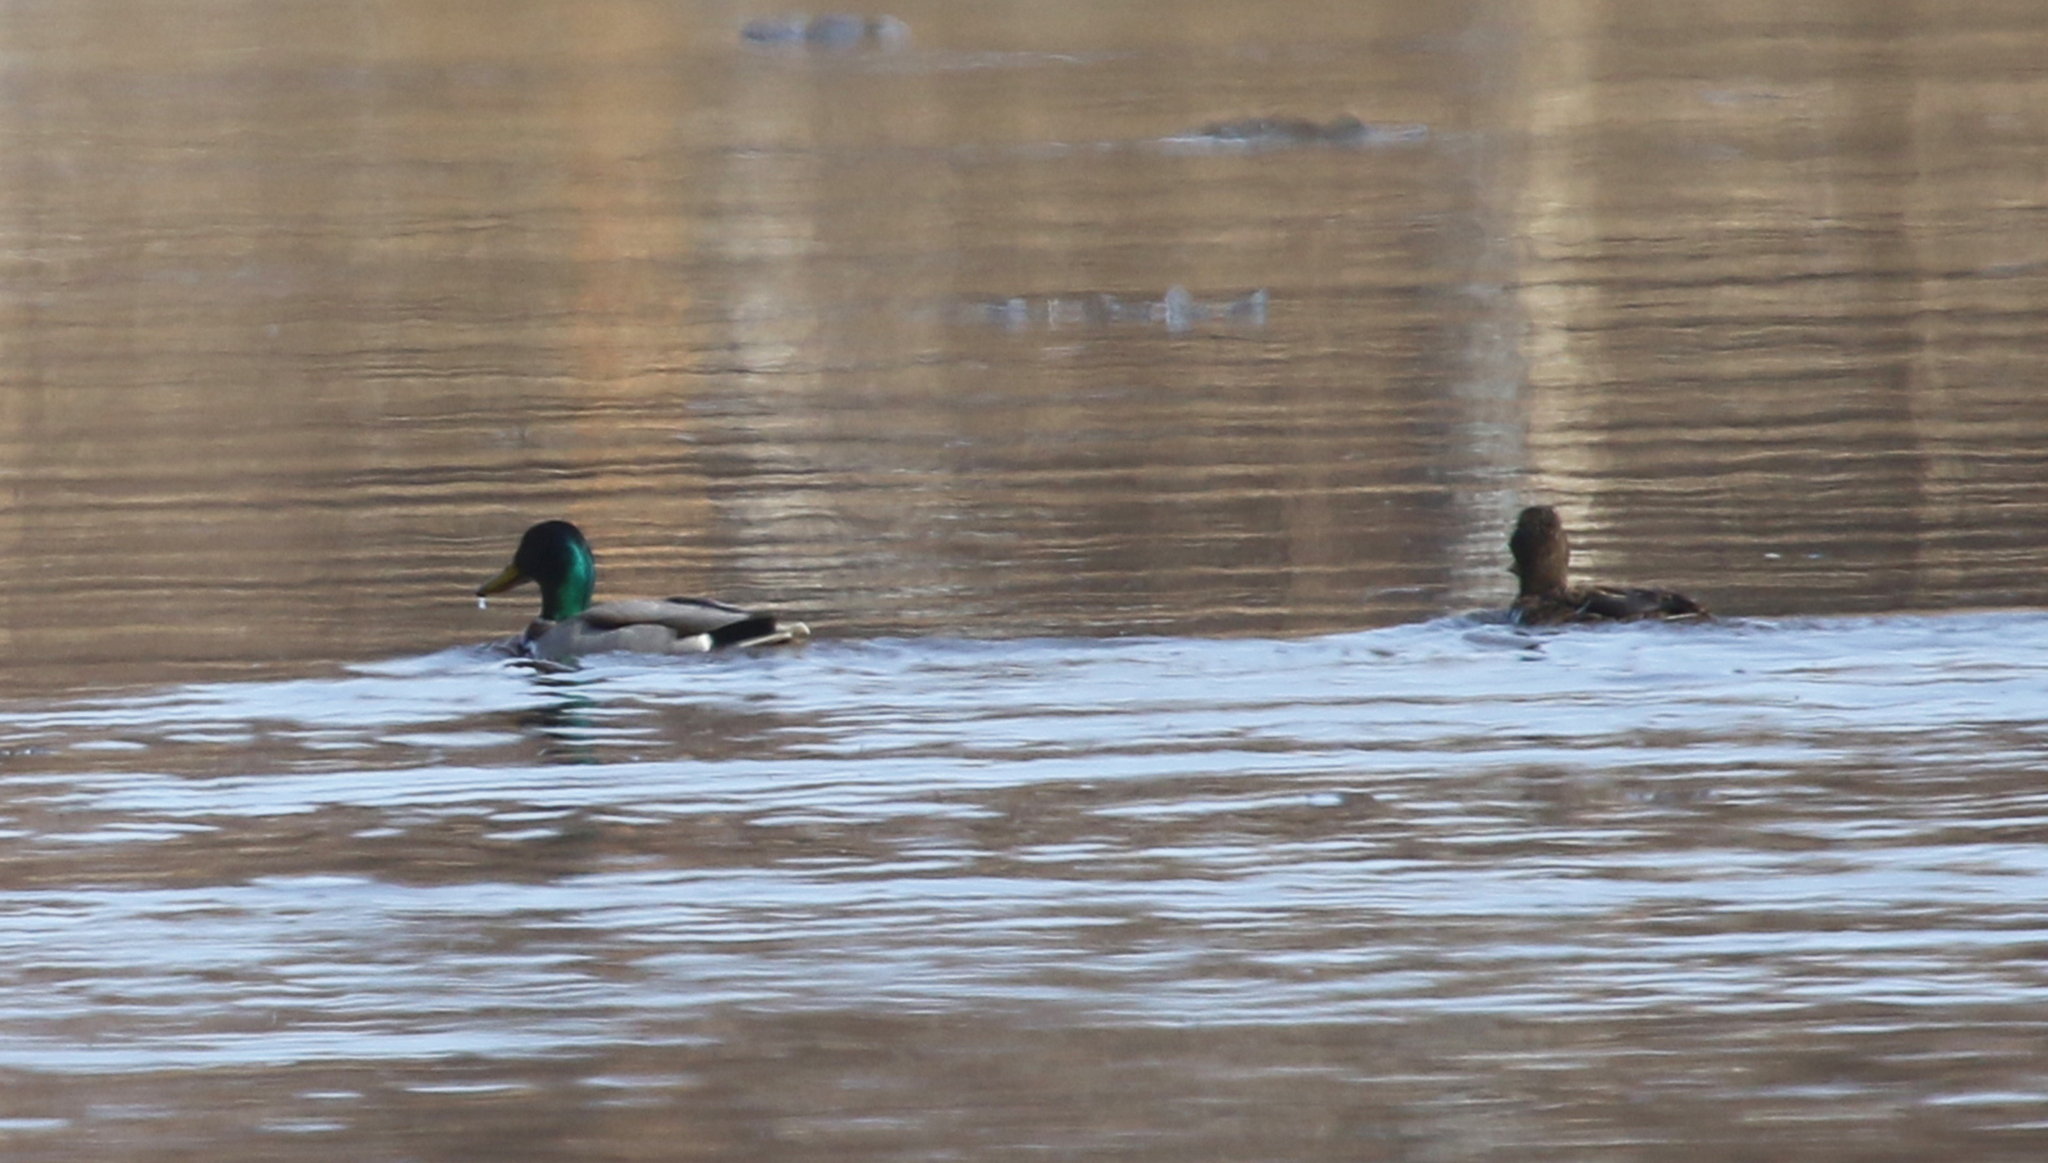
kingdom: Animalia
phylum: Chordata
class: Aves
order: Anseriformes
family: Anatidae
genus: Anas
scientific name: Anas platyrhynchos
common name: Mallard
